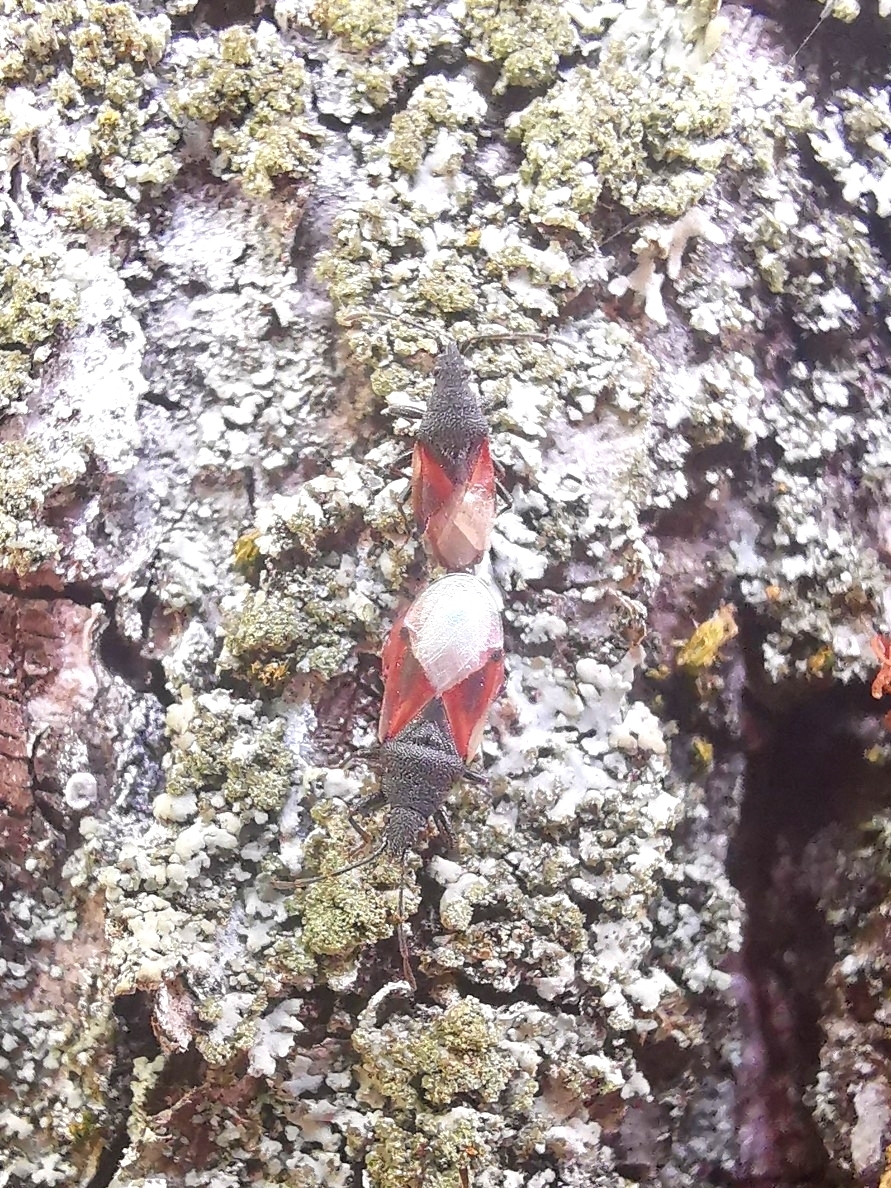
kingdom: Animalia
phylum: Arthropoda
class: Insecta
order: Hemiptera
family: Oxycarenidae
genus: Oxycarenus
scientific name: Oxycarenus lavaterae
